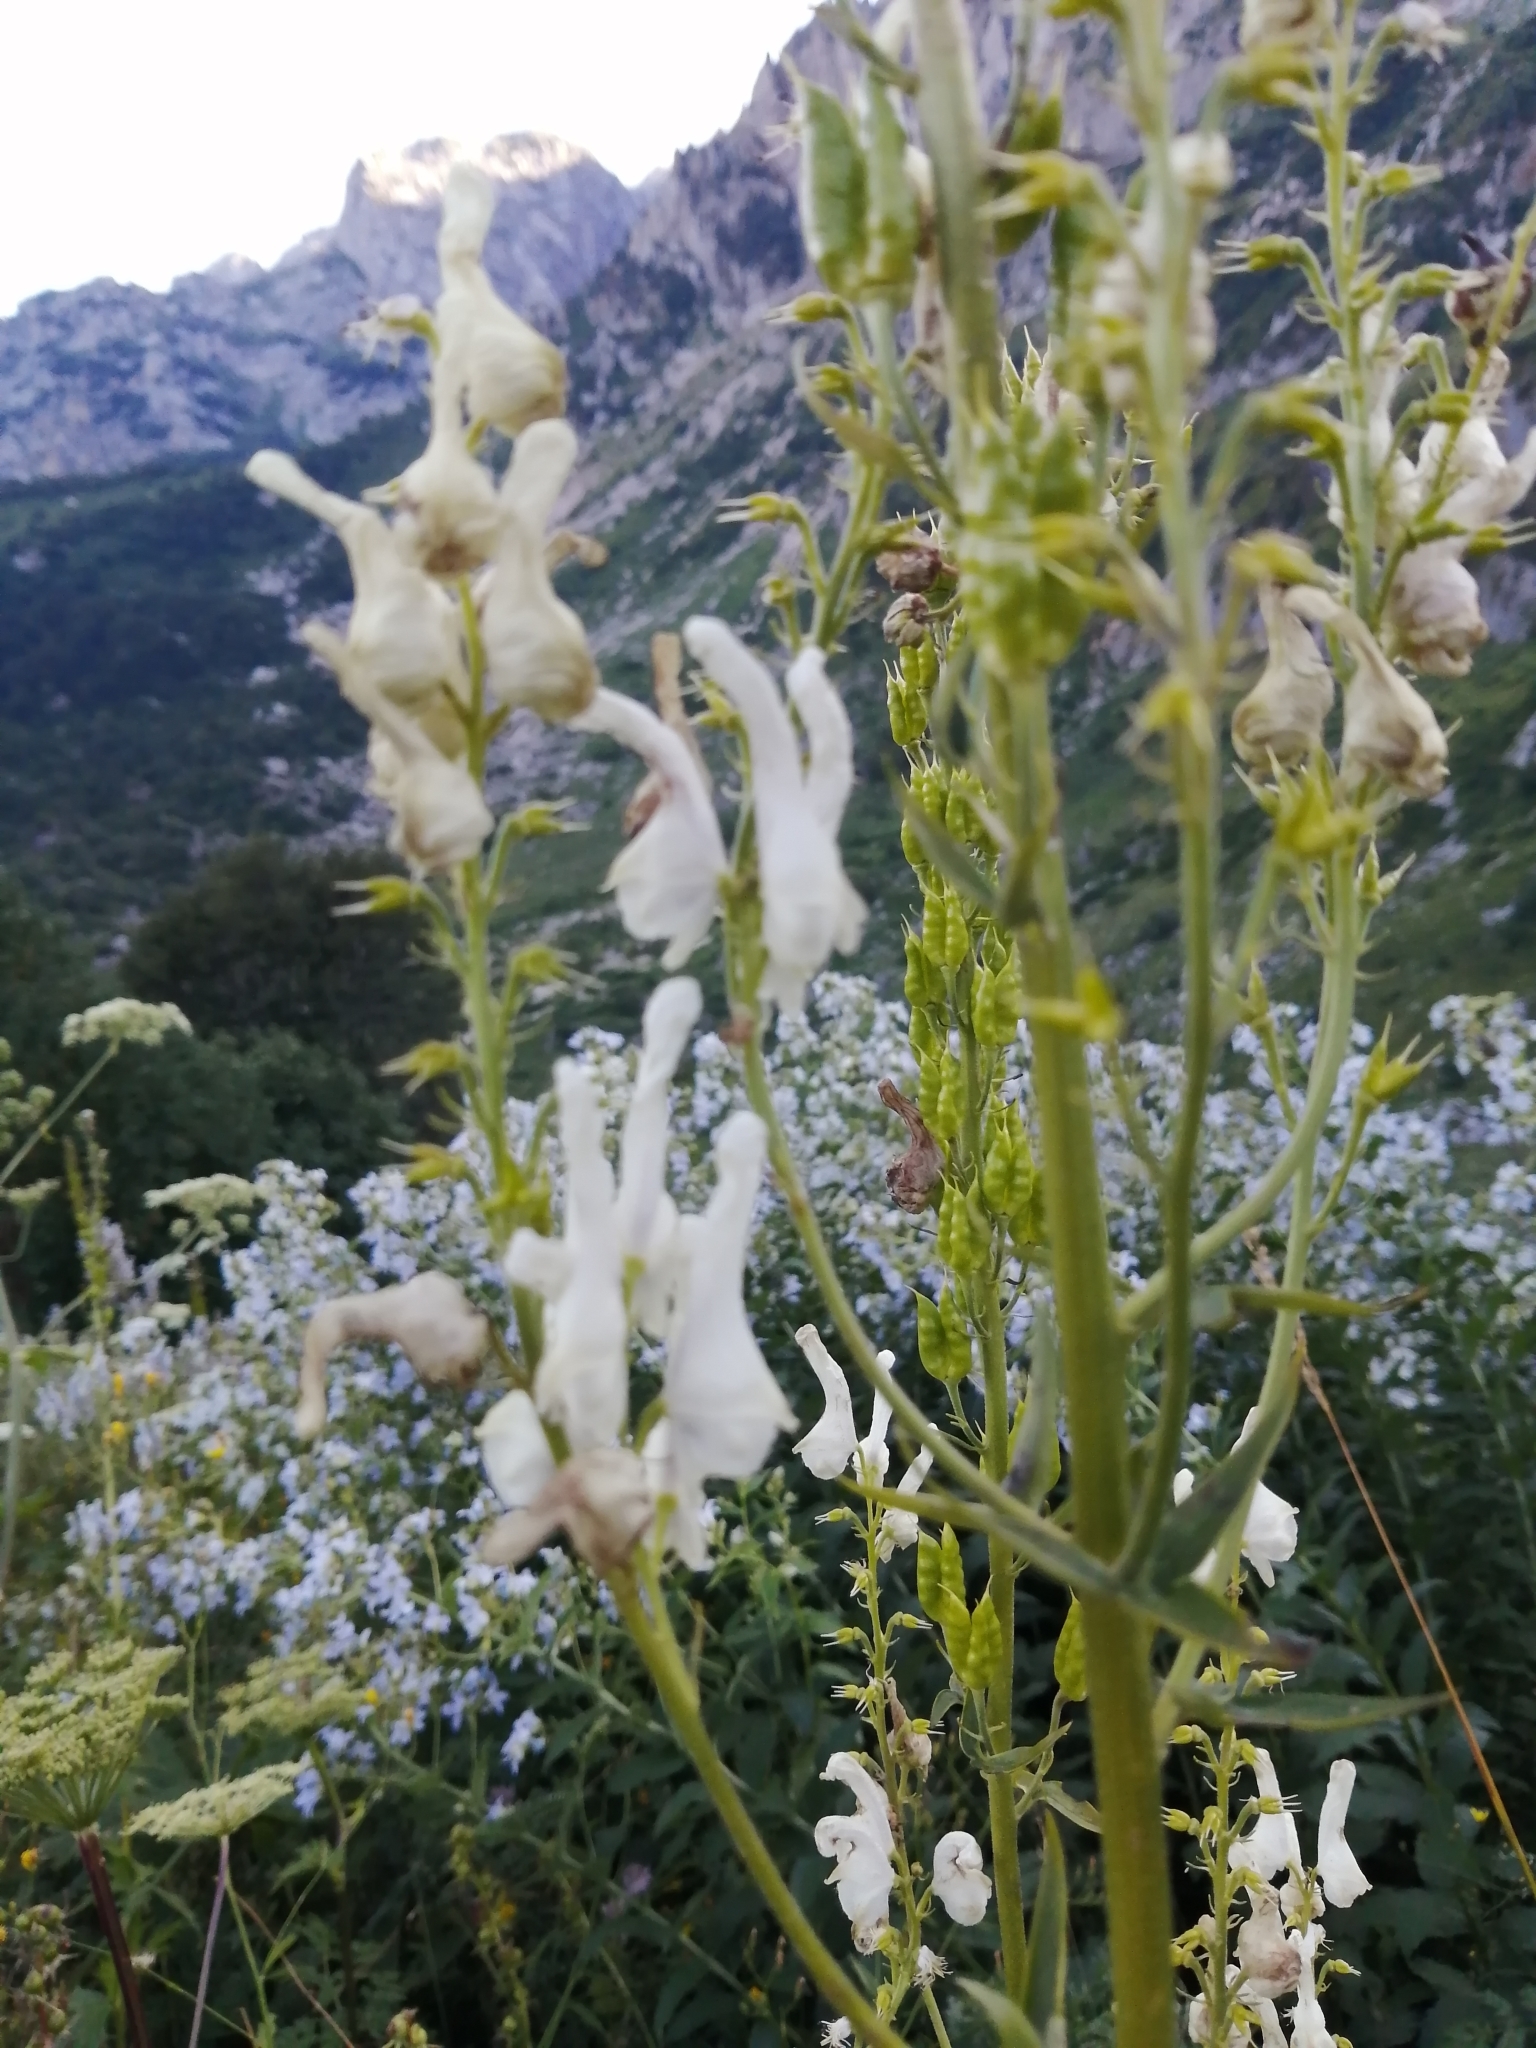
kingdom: Plantae
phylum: Tracheophyta
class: Magnoliopsida
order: Ranunculales
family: Ranunculaceae
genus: Aconitum
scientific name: Aconitum orientale
